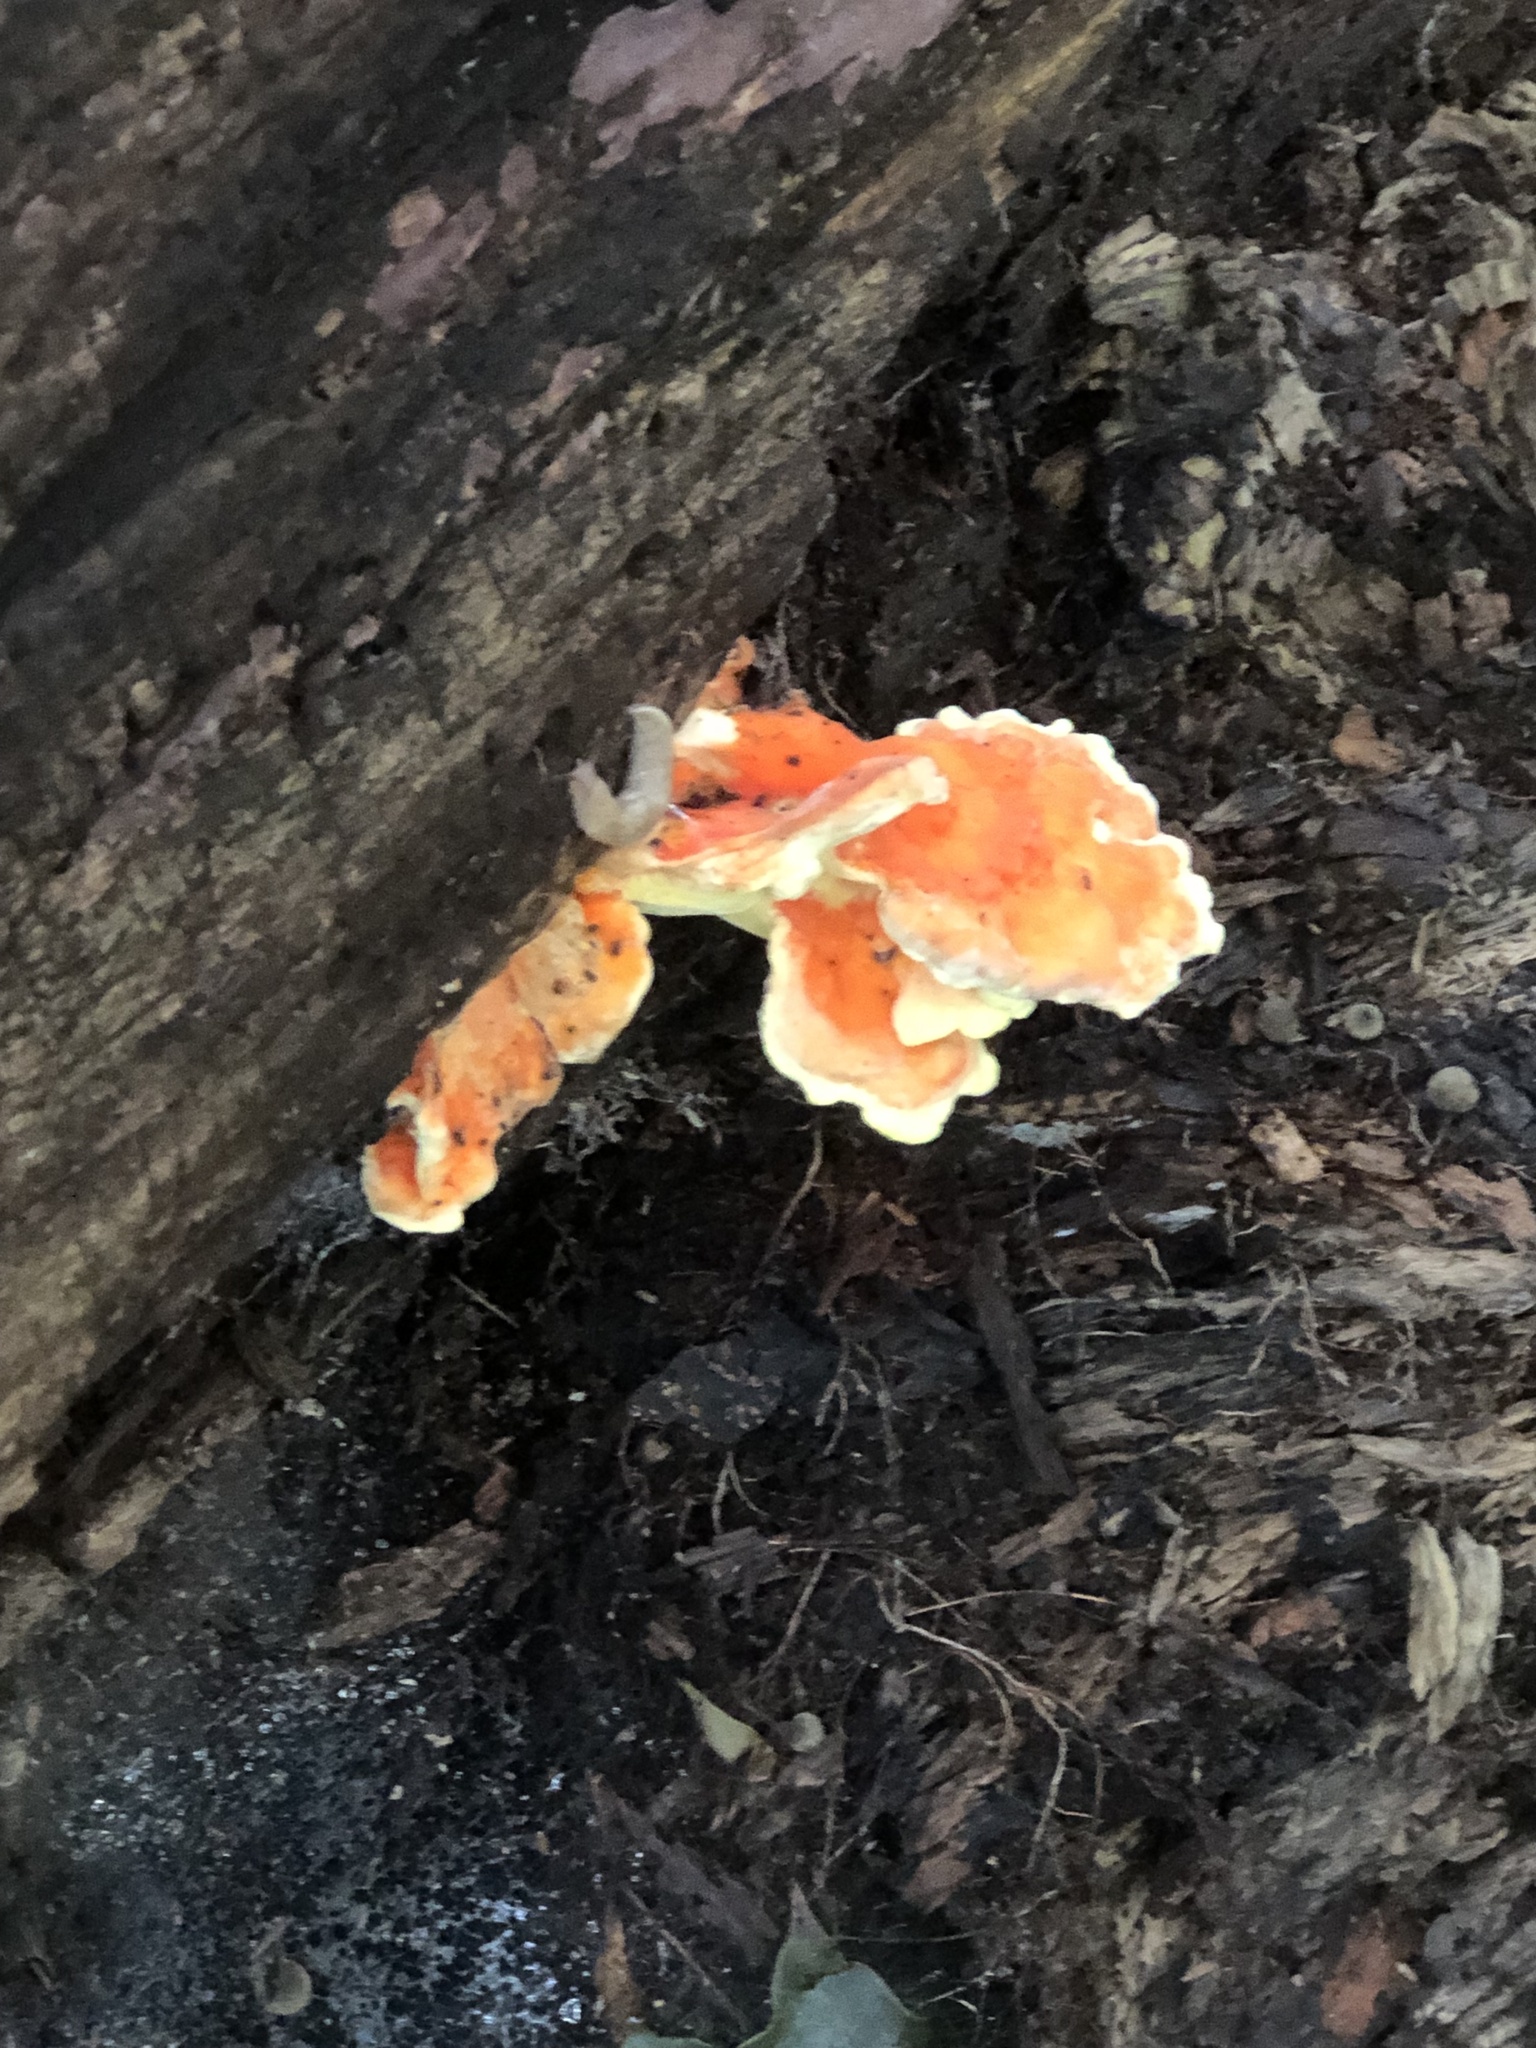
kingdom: Fungi
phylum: Basidiomycota
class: Agaricomycetes
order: Polyporales
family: Laetiporaceae
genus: Laetiporus
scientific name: Laetiporus sulphureus
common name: Chicken of the woods
